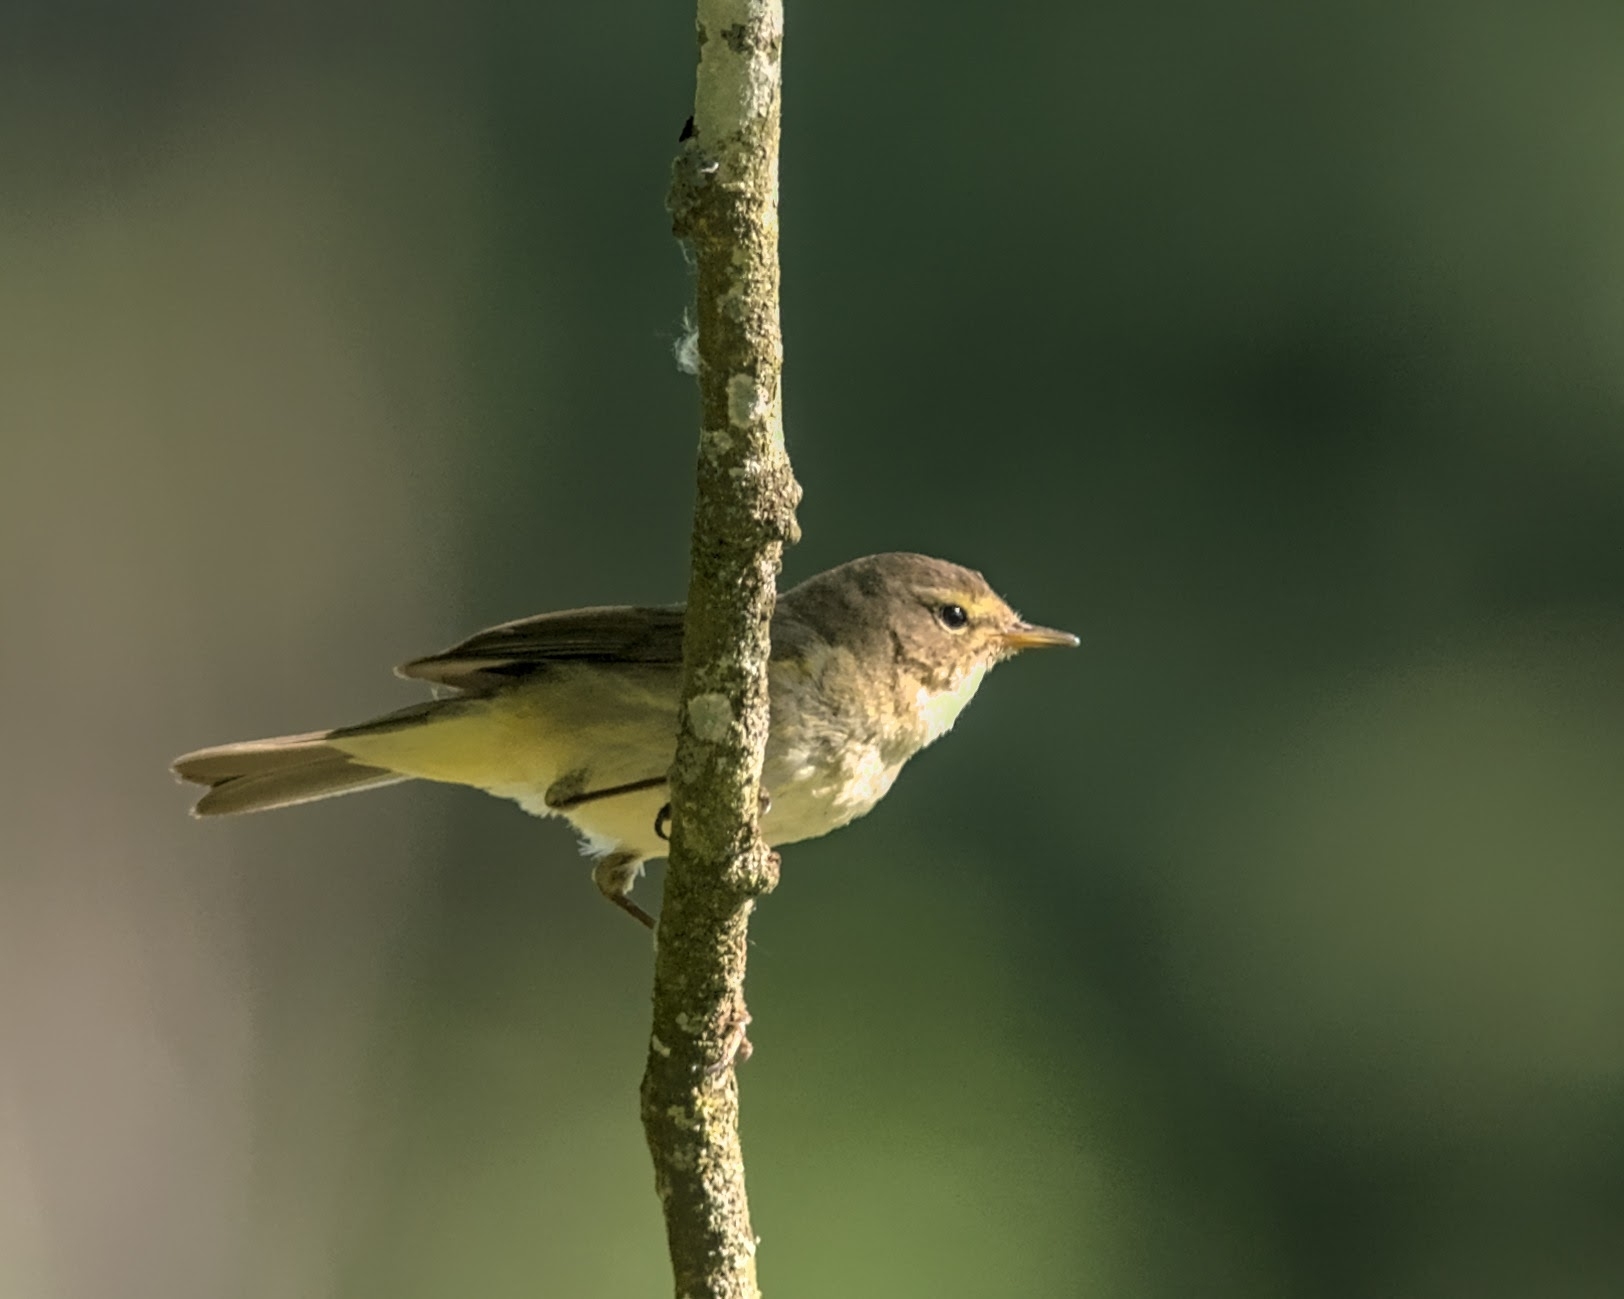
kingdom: Animalia
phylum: Chordata
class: Aves
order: Passeriformes
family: Phylloscopidae
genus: Phylloscopus
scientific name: Phylloscopus collybita
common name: Common chiffchaff
